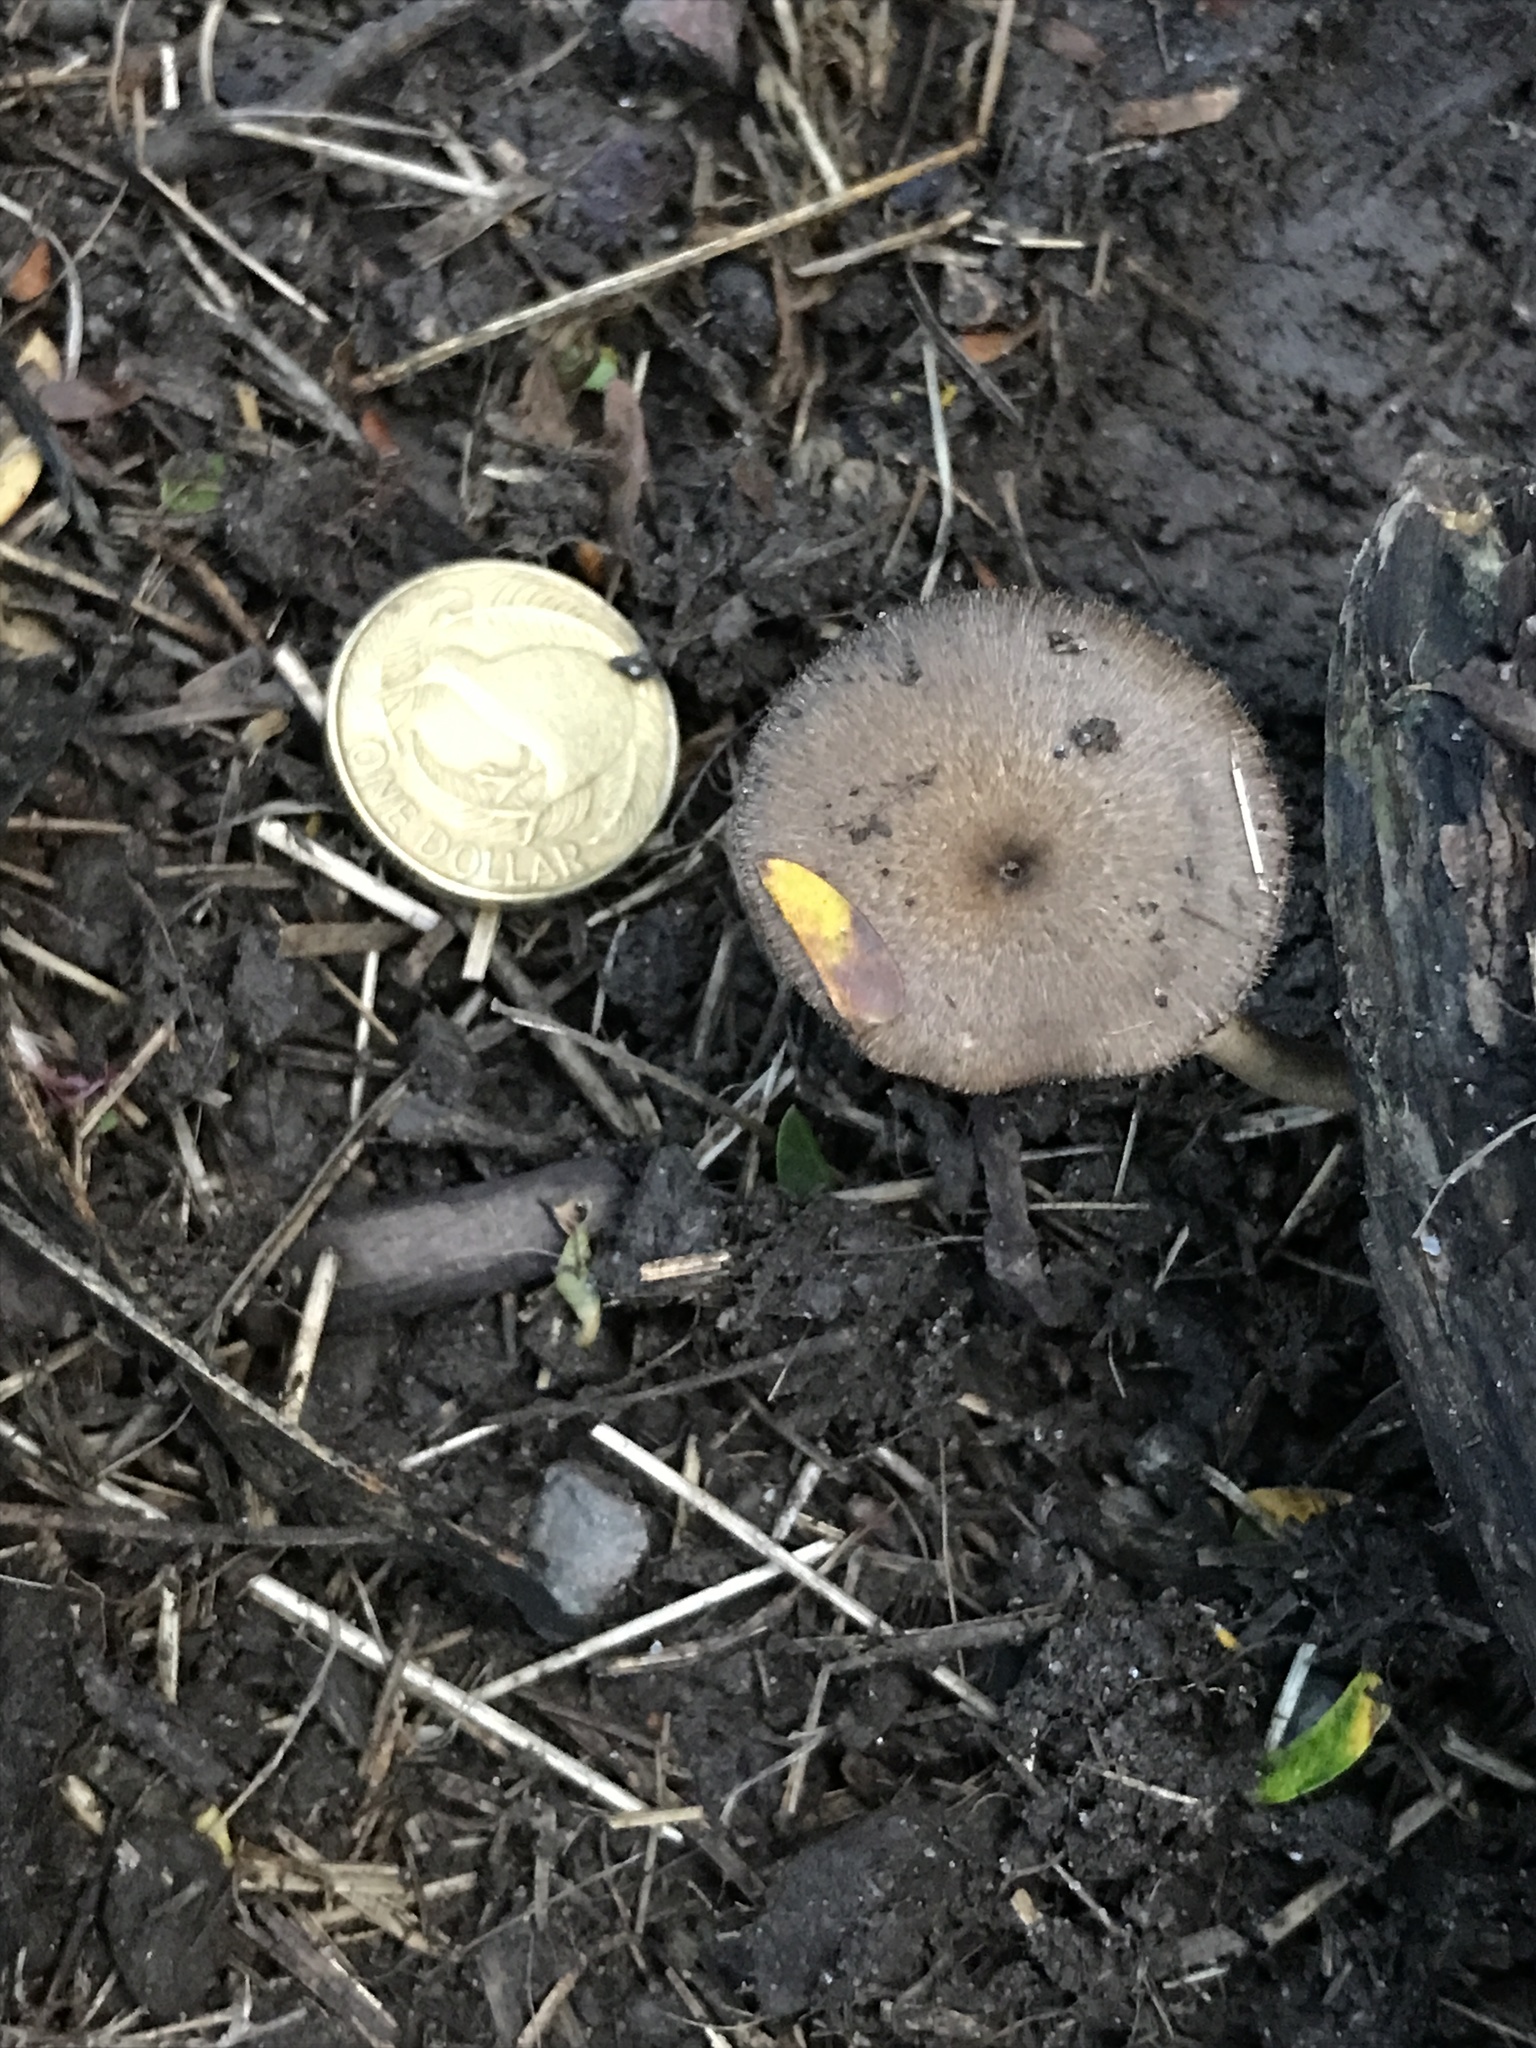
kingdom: Fungi
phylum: Basidiomycota
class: Agaricomycetes
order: Polyporales
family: Polyporaceae
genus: Lentinus
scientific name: Lentinus arcularius
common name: Spring polypore
